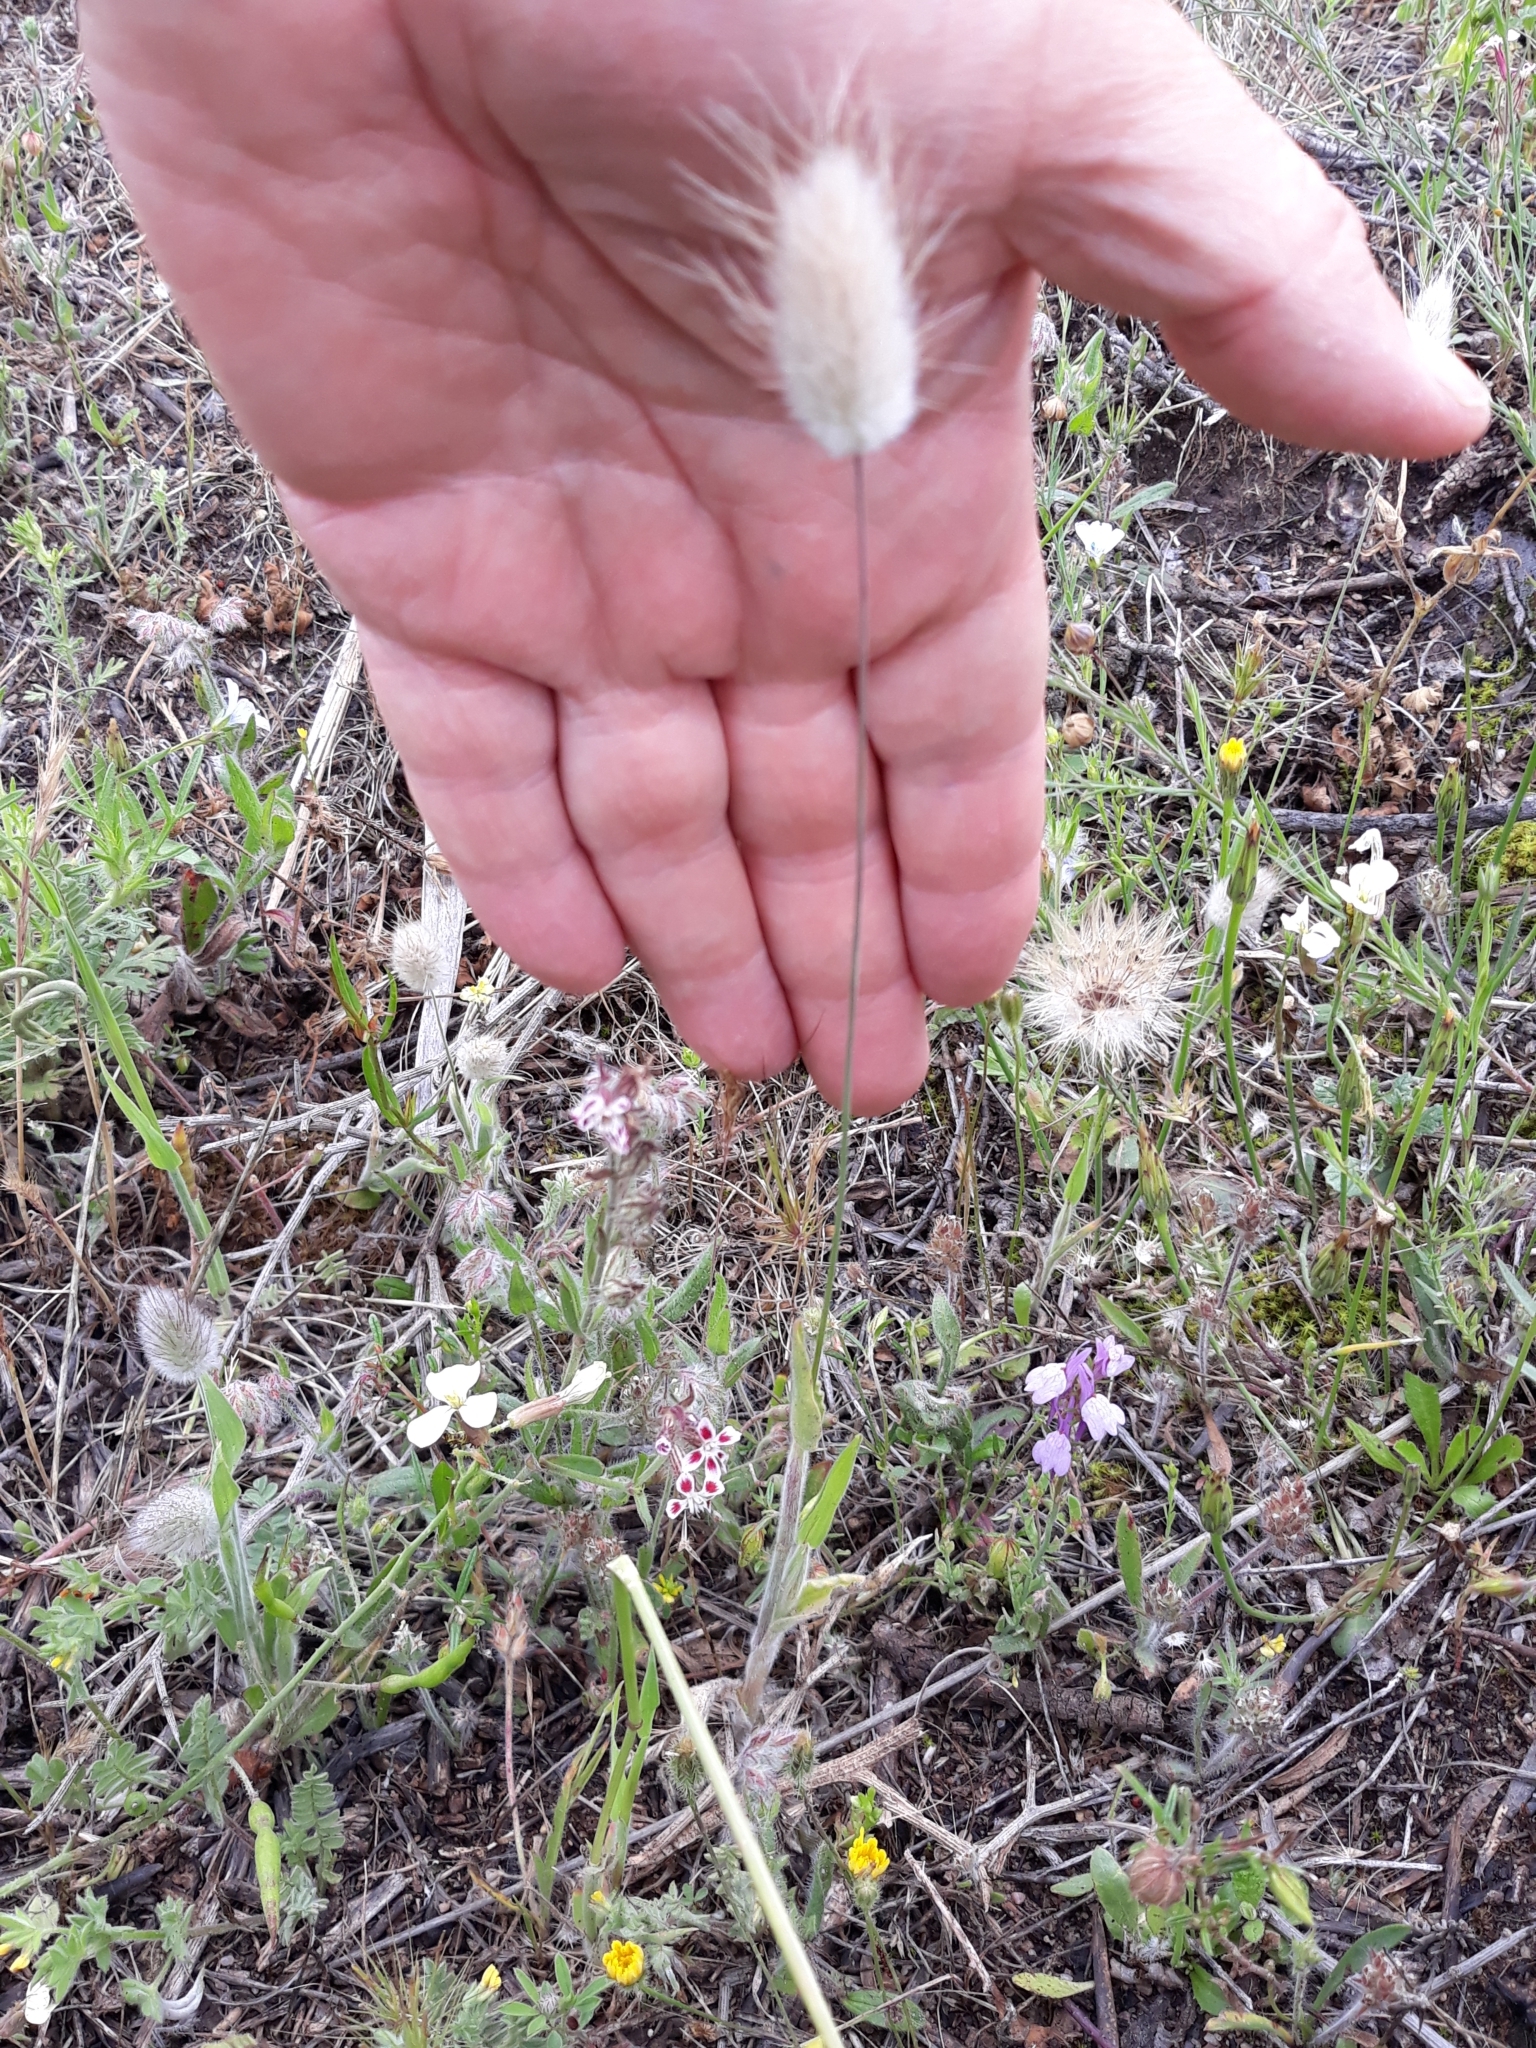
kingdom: Plantae
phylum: Tracheophyta
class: Liliopsida
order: Poales
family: Poaceae
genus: Lagurus
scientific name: Lagurus ovatus
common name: Hare's-tail
